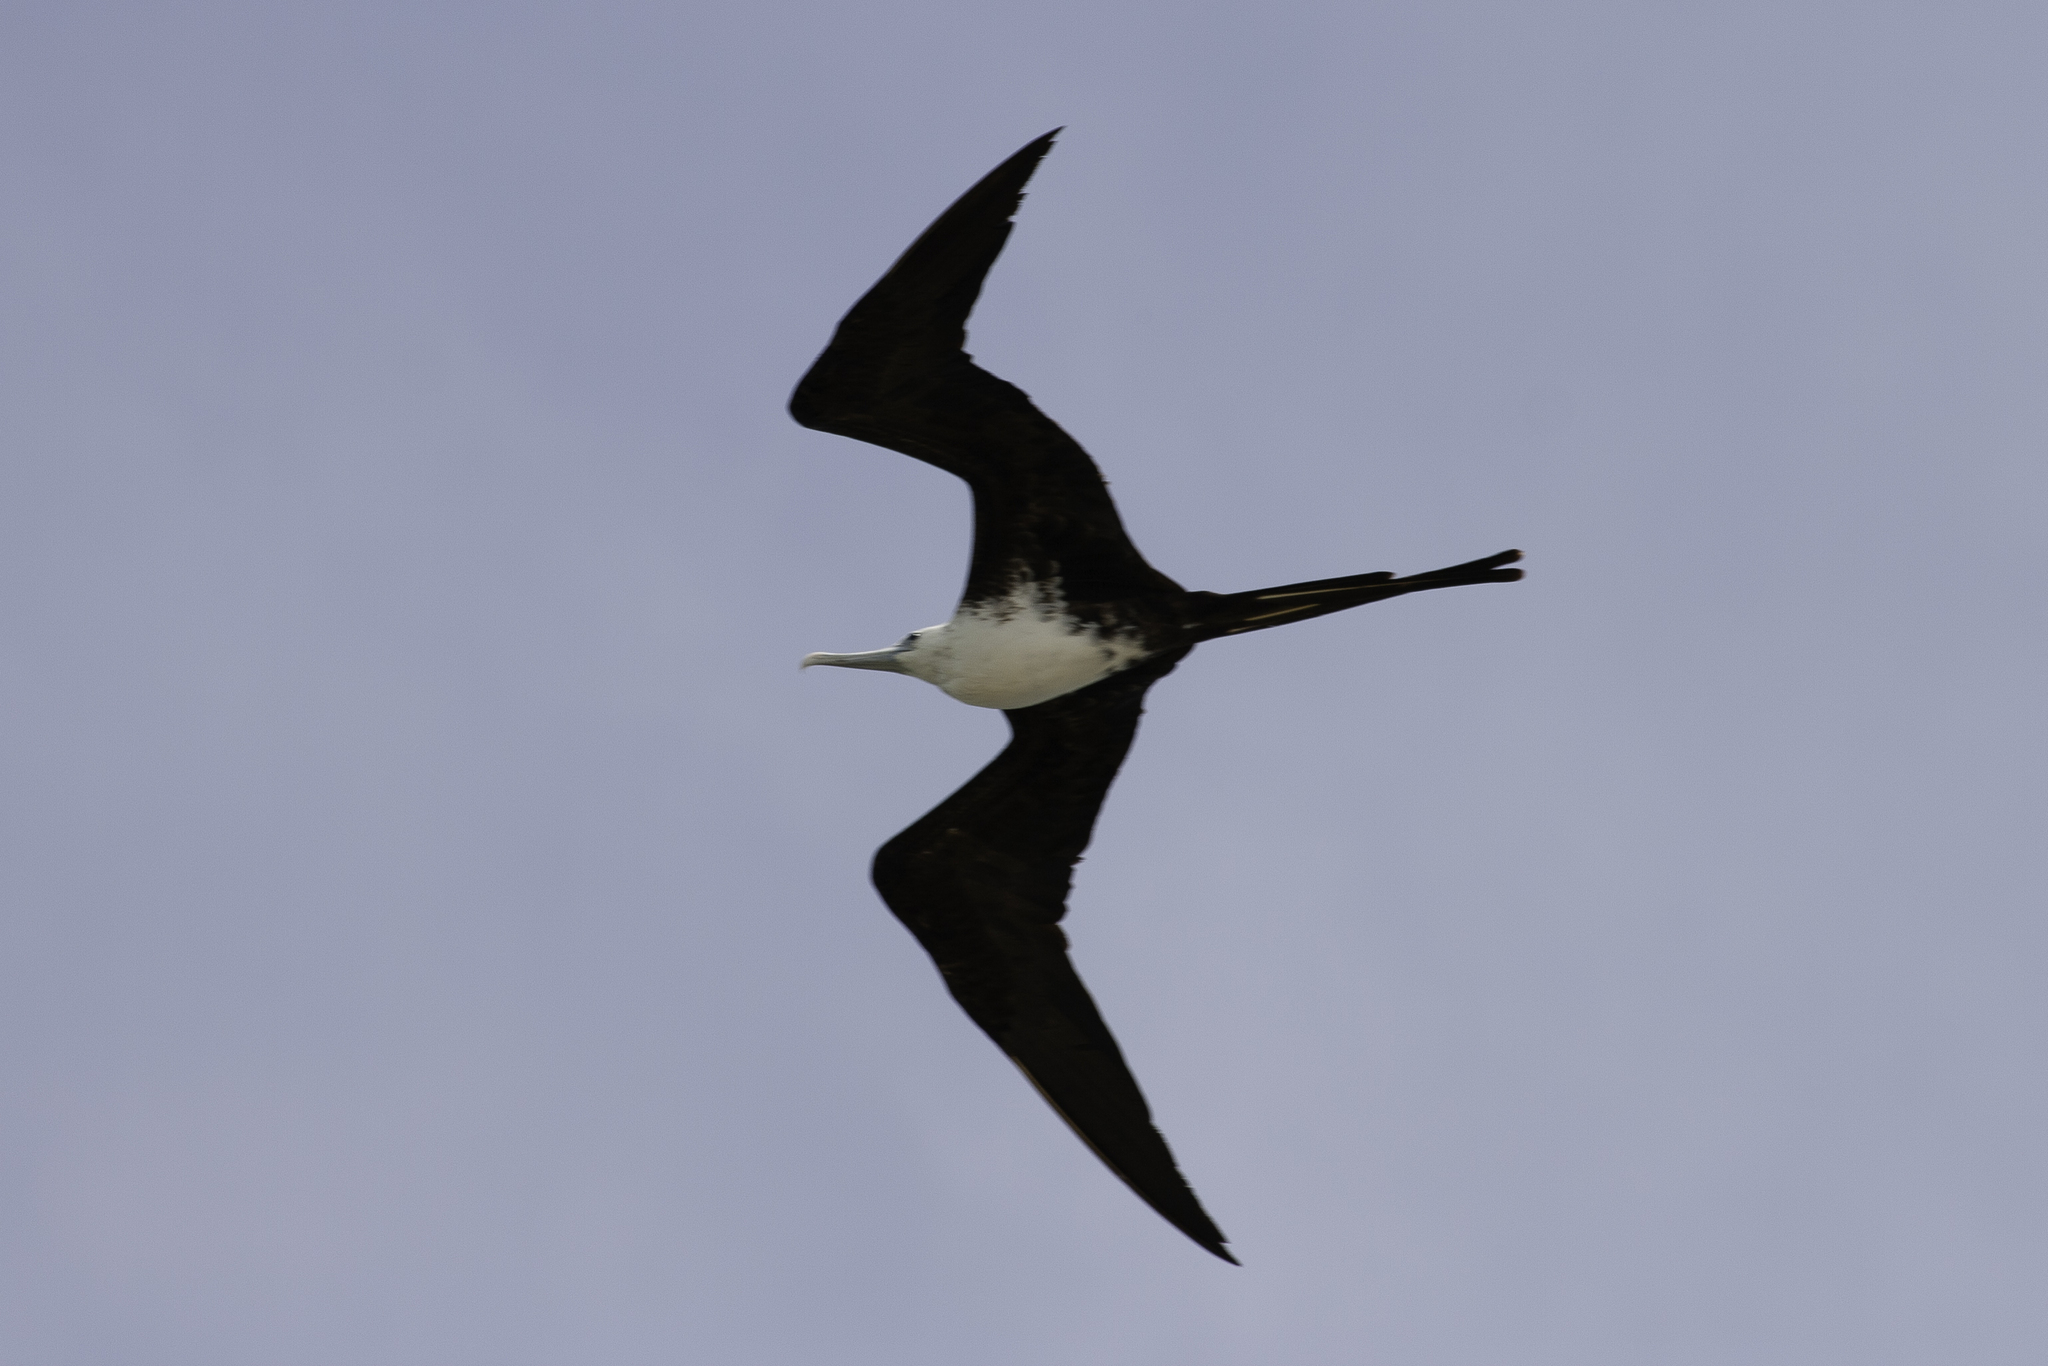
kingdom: Animalia
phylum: Chordata
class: Aves
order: Suliformes
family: Fregatidae
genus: Fregata
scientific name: Fregata magnificens
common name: Magnificent frigatebird
